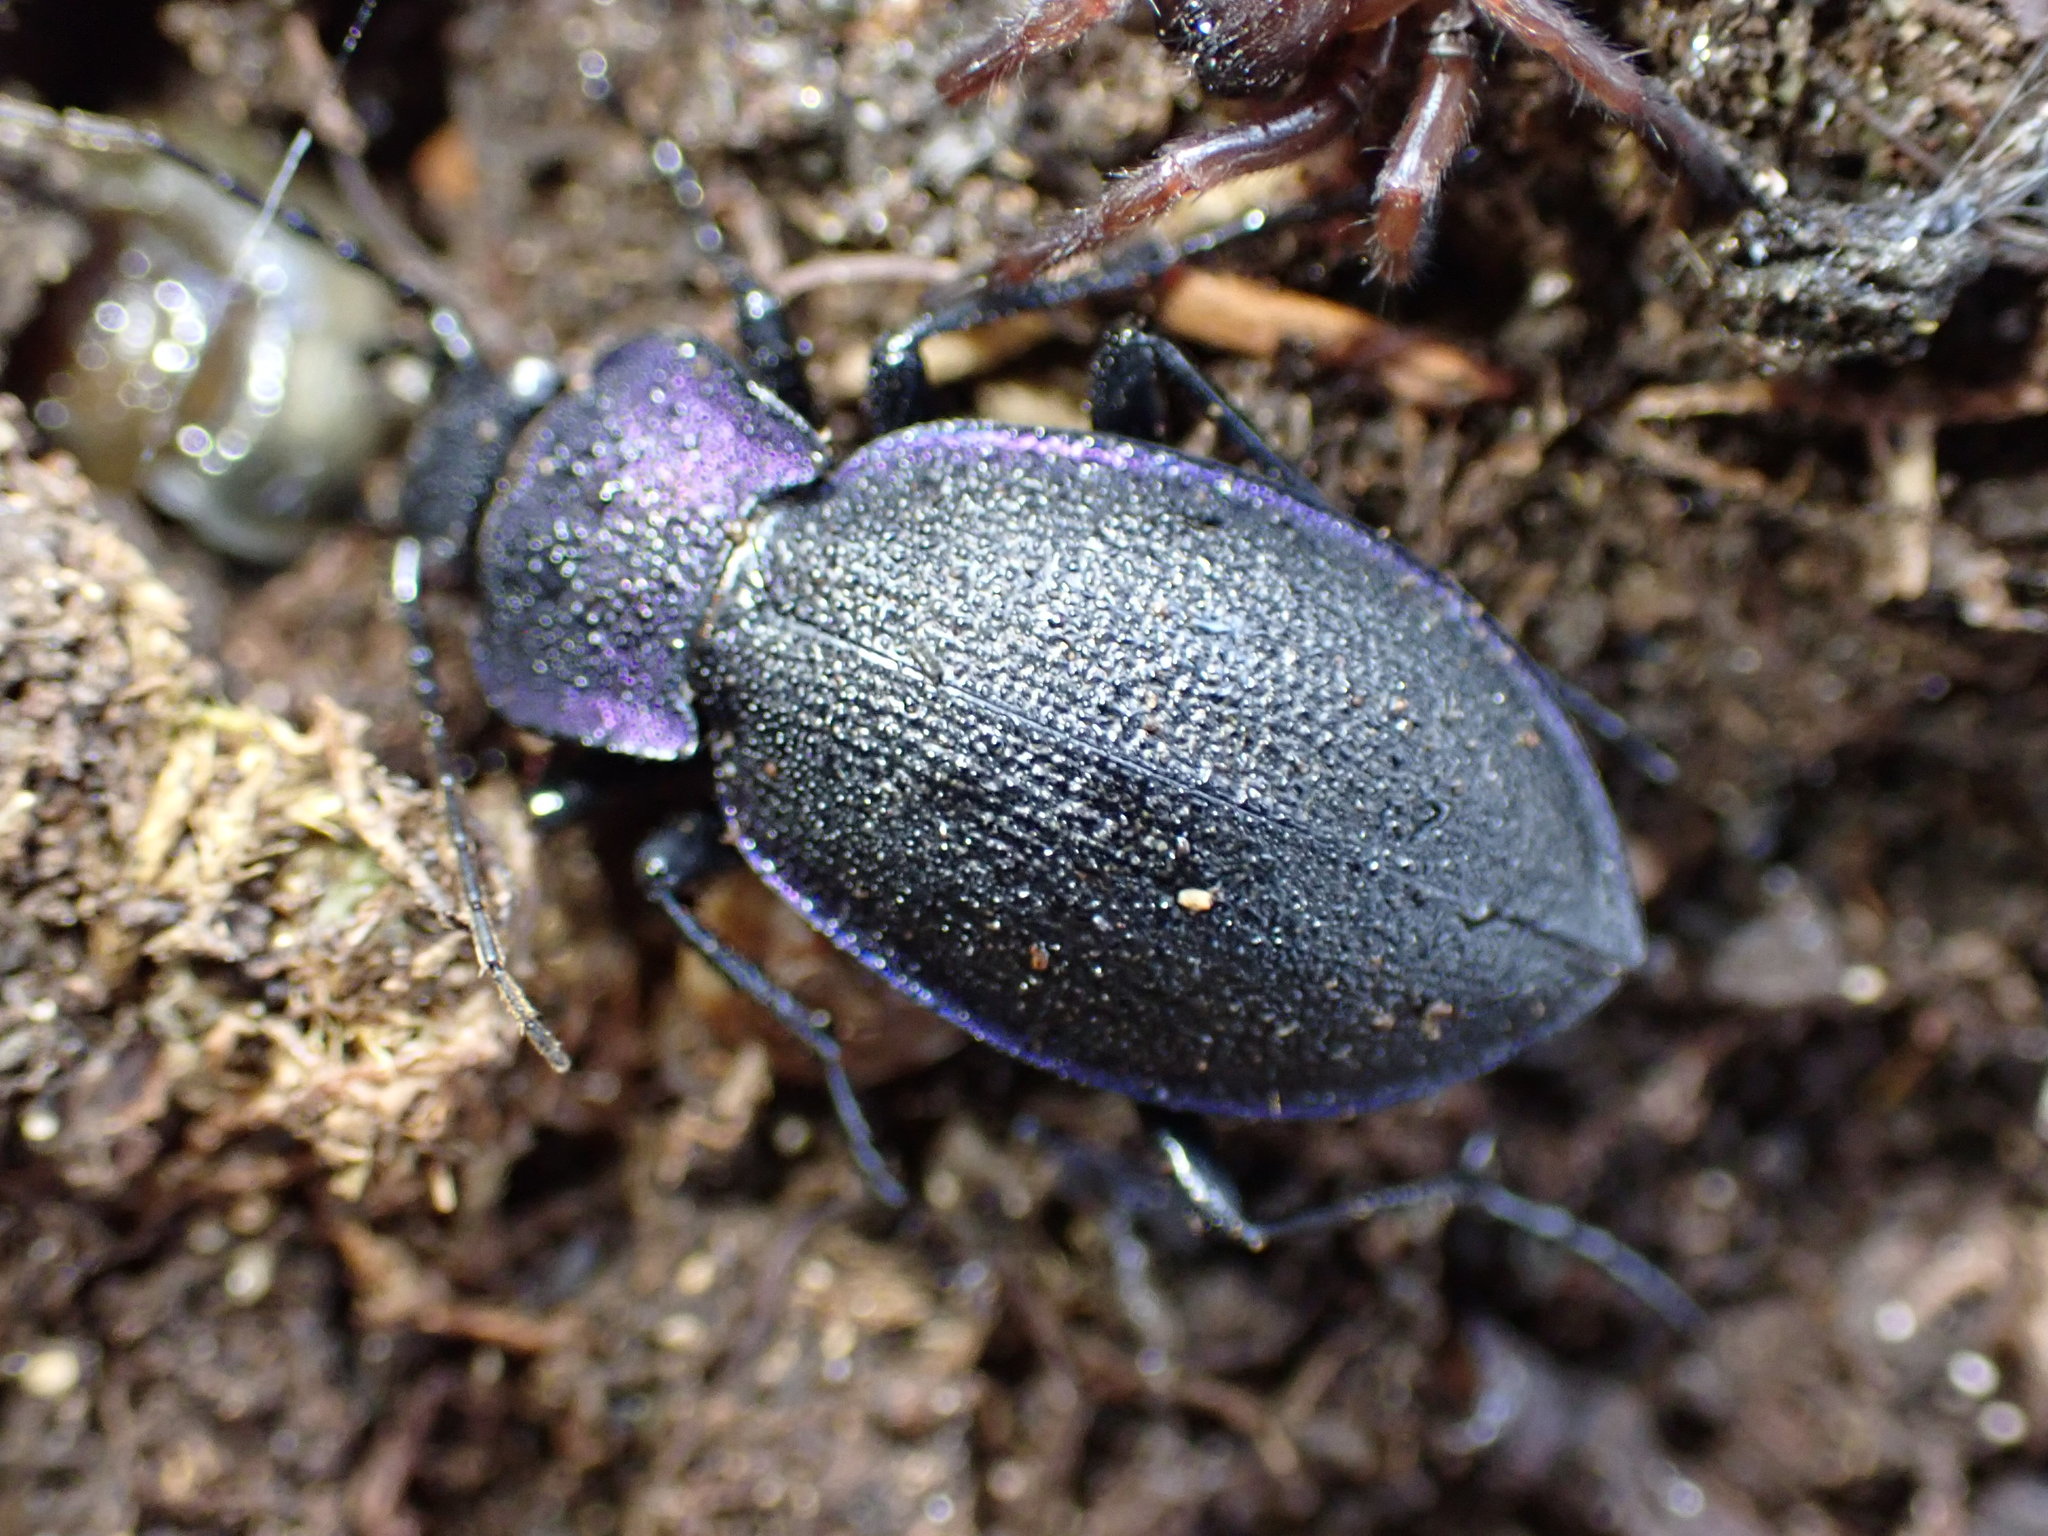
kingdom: Animalia
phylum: Arthropoda
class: Insecta
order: Coleoptera
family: Carabidae
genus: Carabus
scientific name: Carabus problematicus
